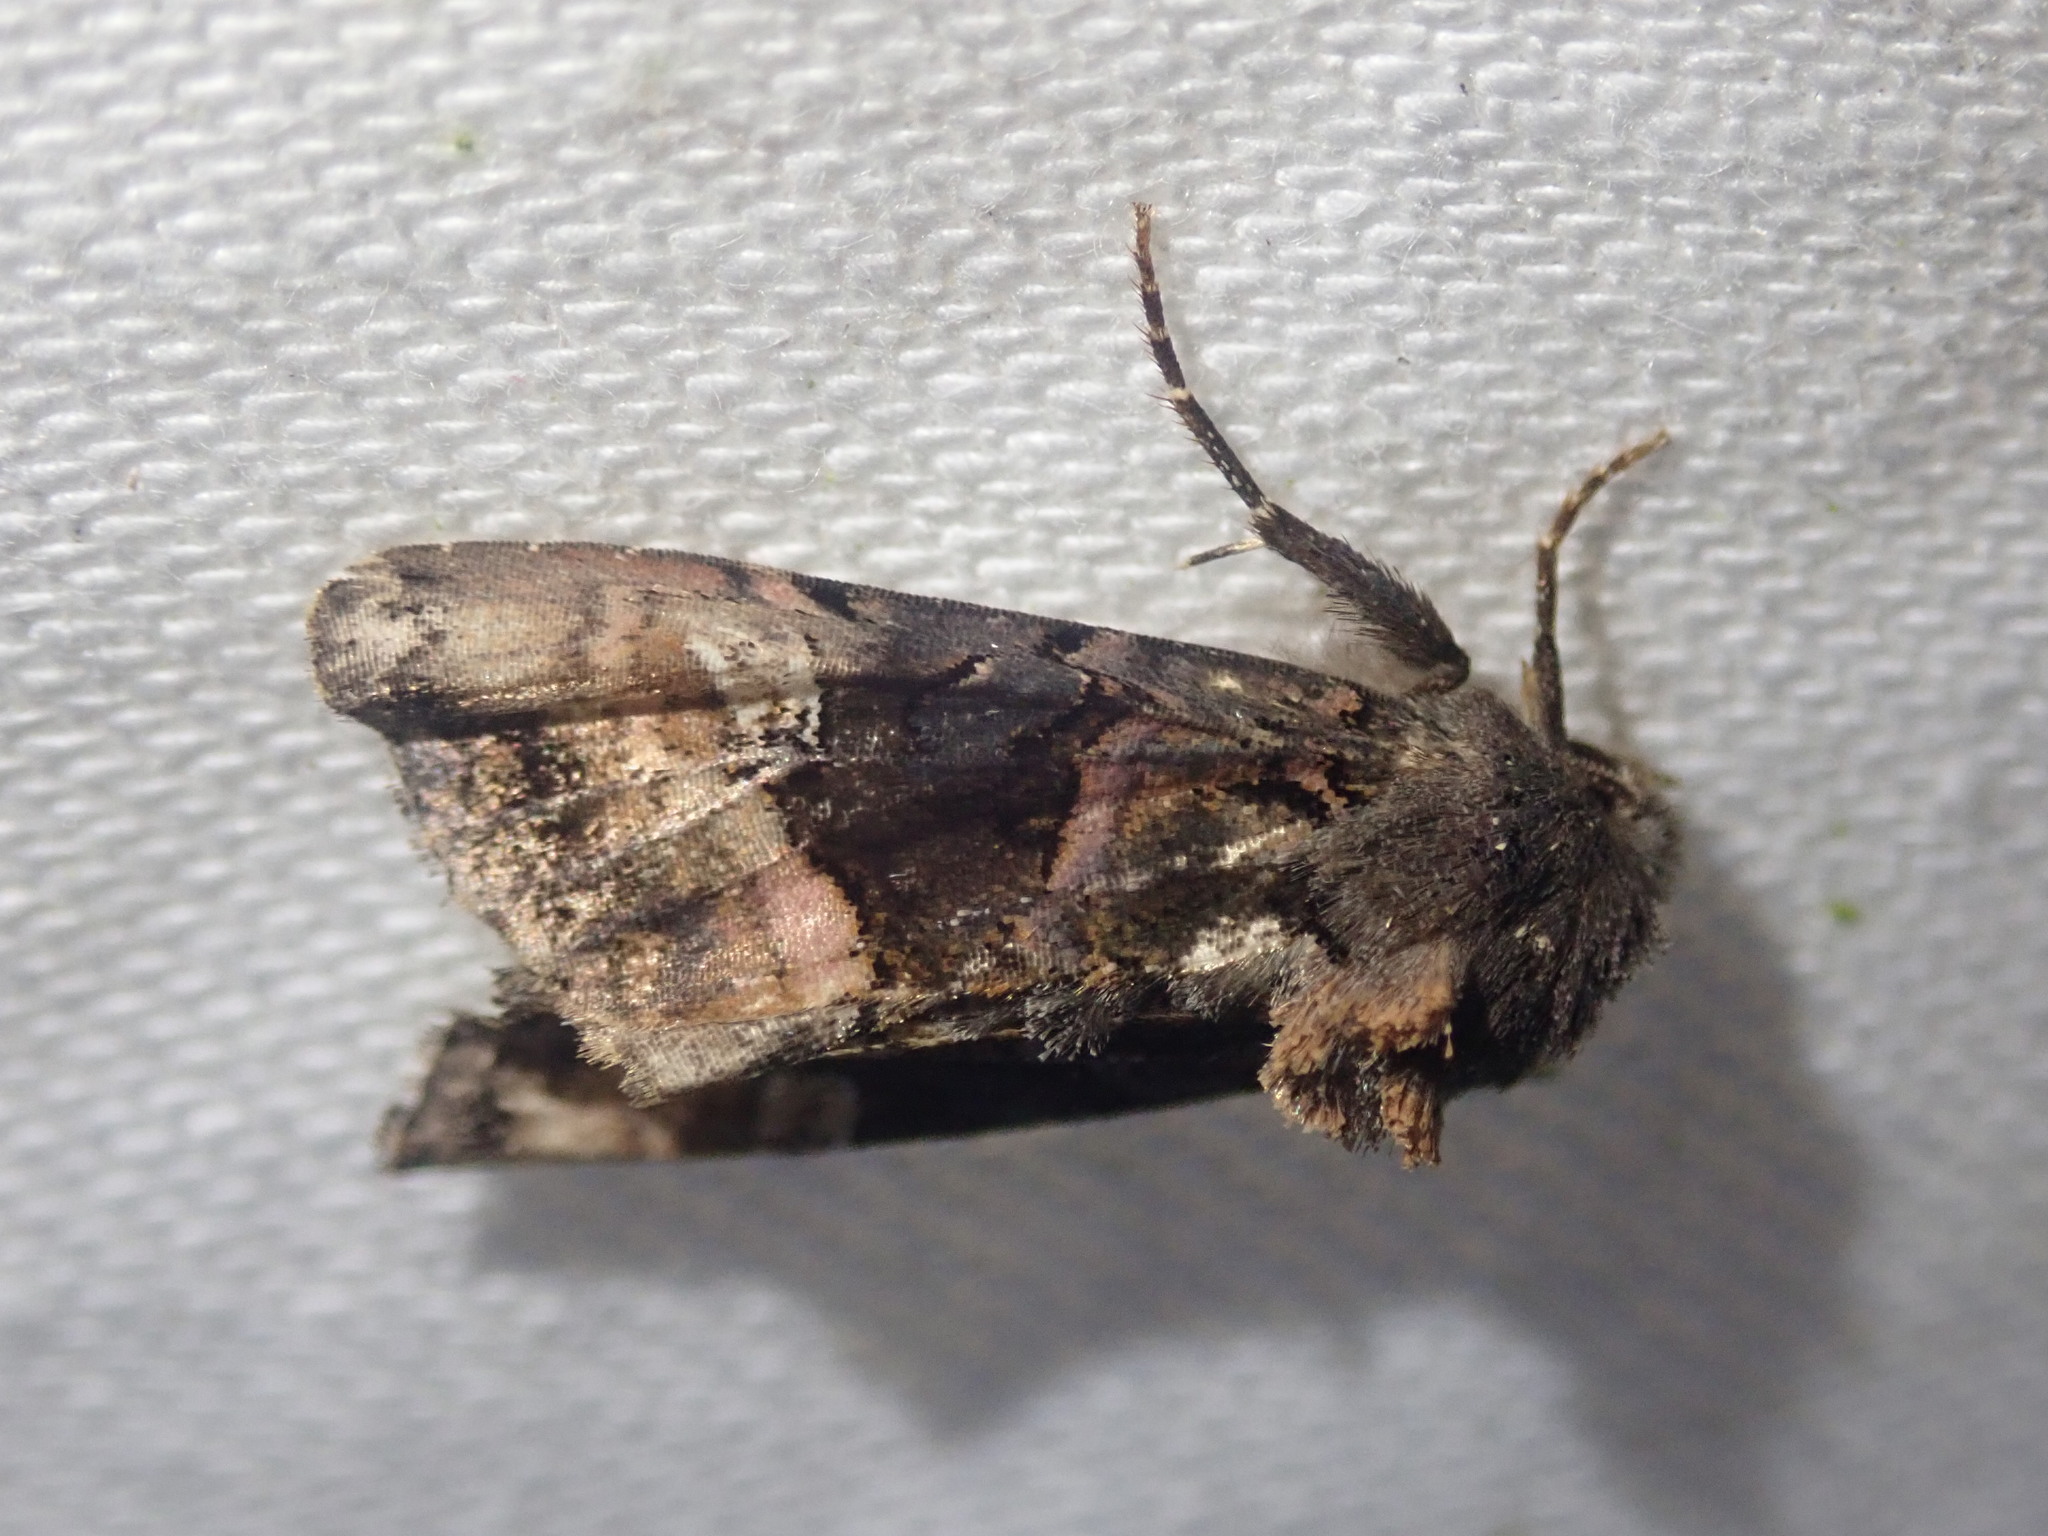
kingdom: Animalia
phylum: Arthropoda
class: Insecta
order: Lepidoptera
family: Noctuidae
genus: Euplexia
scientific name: Euplexia lucipara
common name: Small angle shades
